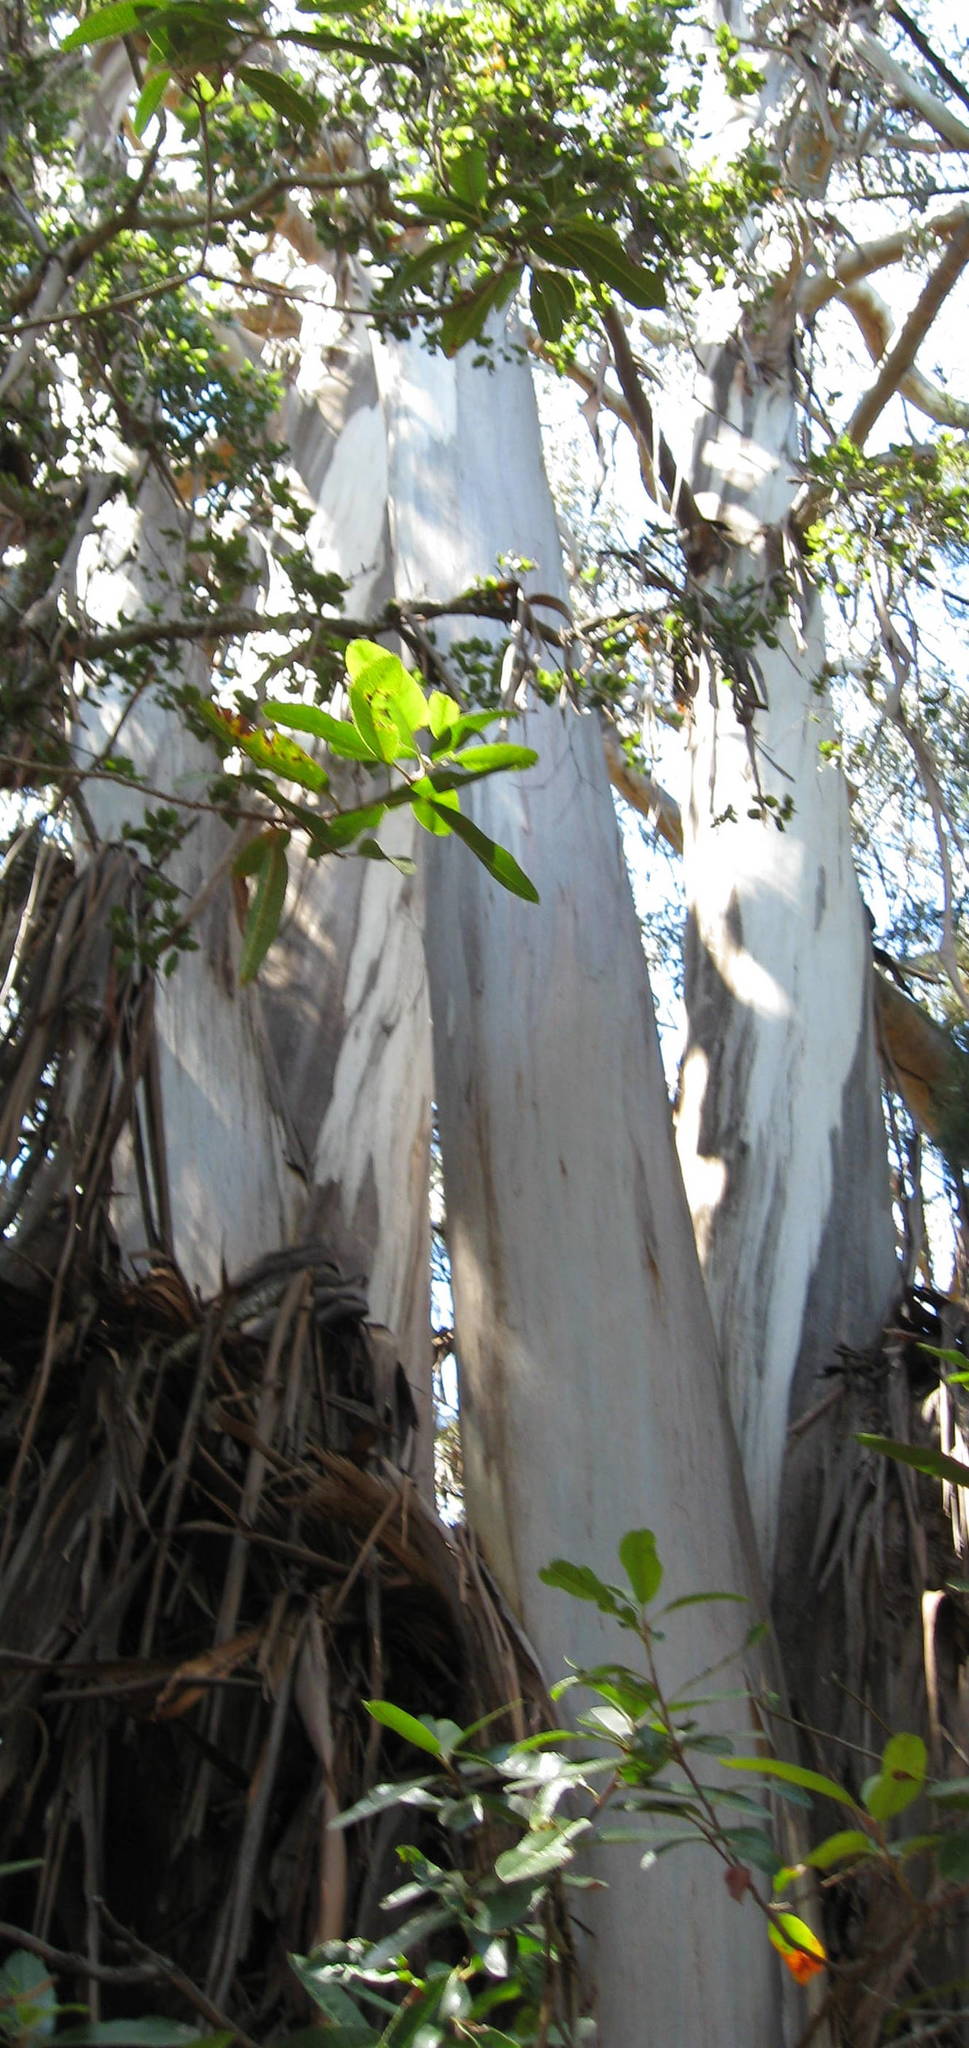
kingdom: Plantae
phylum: Tracheophyta
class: Magnoliopsida
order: Myrtales
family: Myrtaceae
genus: Eucalyptus
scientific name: Eucalyptus globulus
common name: Southern blue-gum
